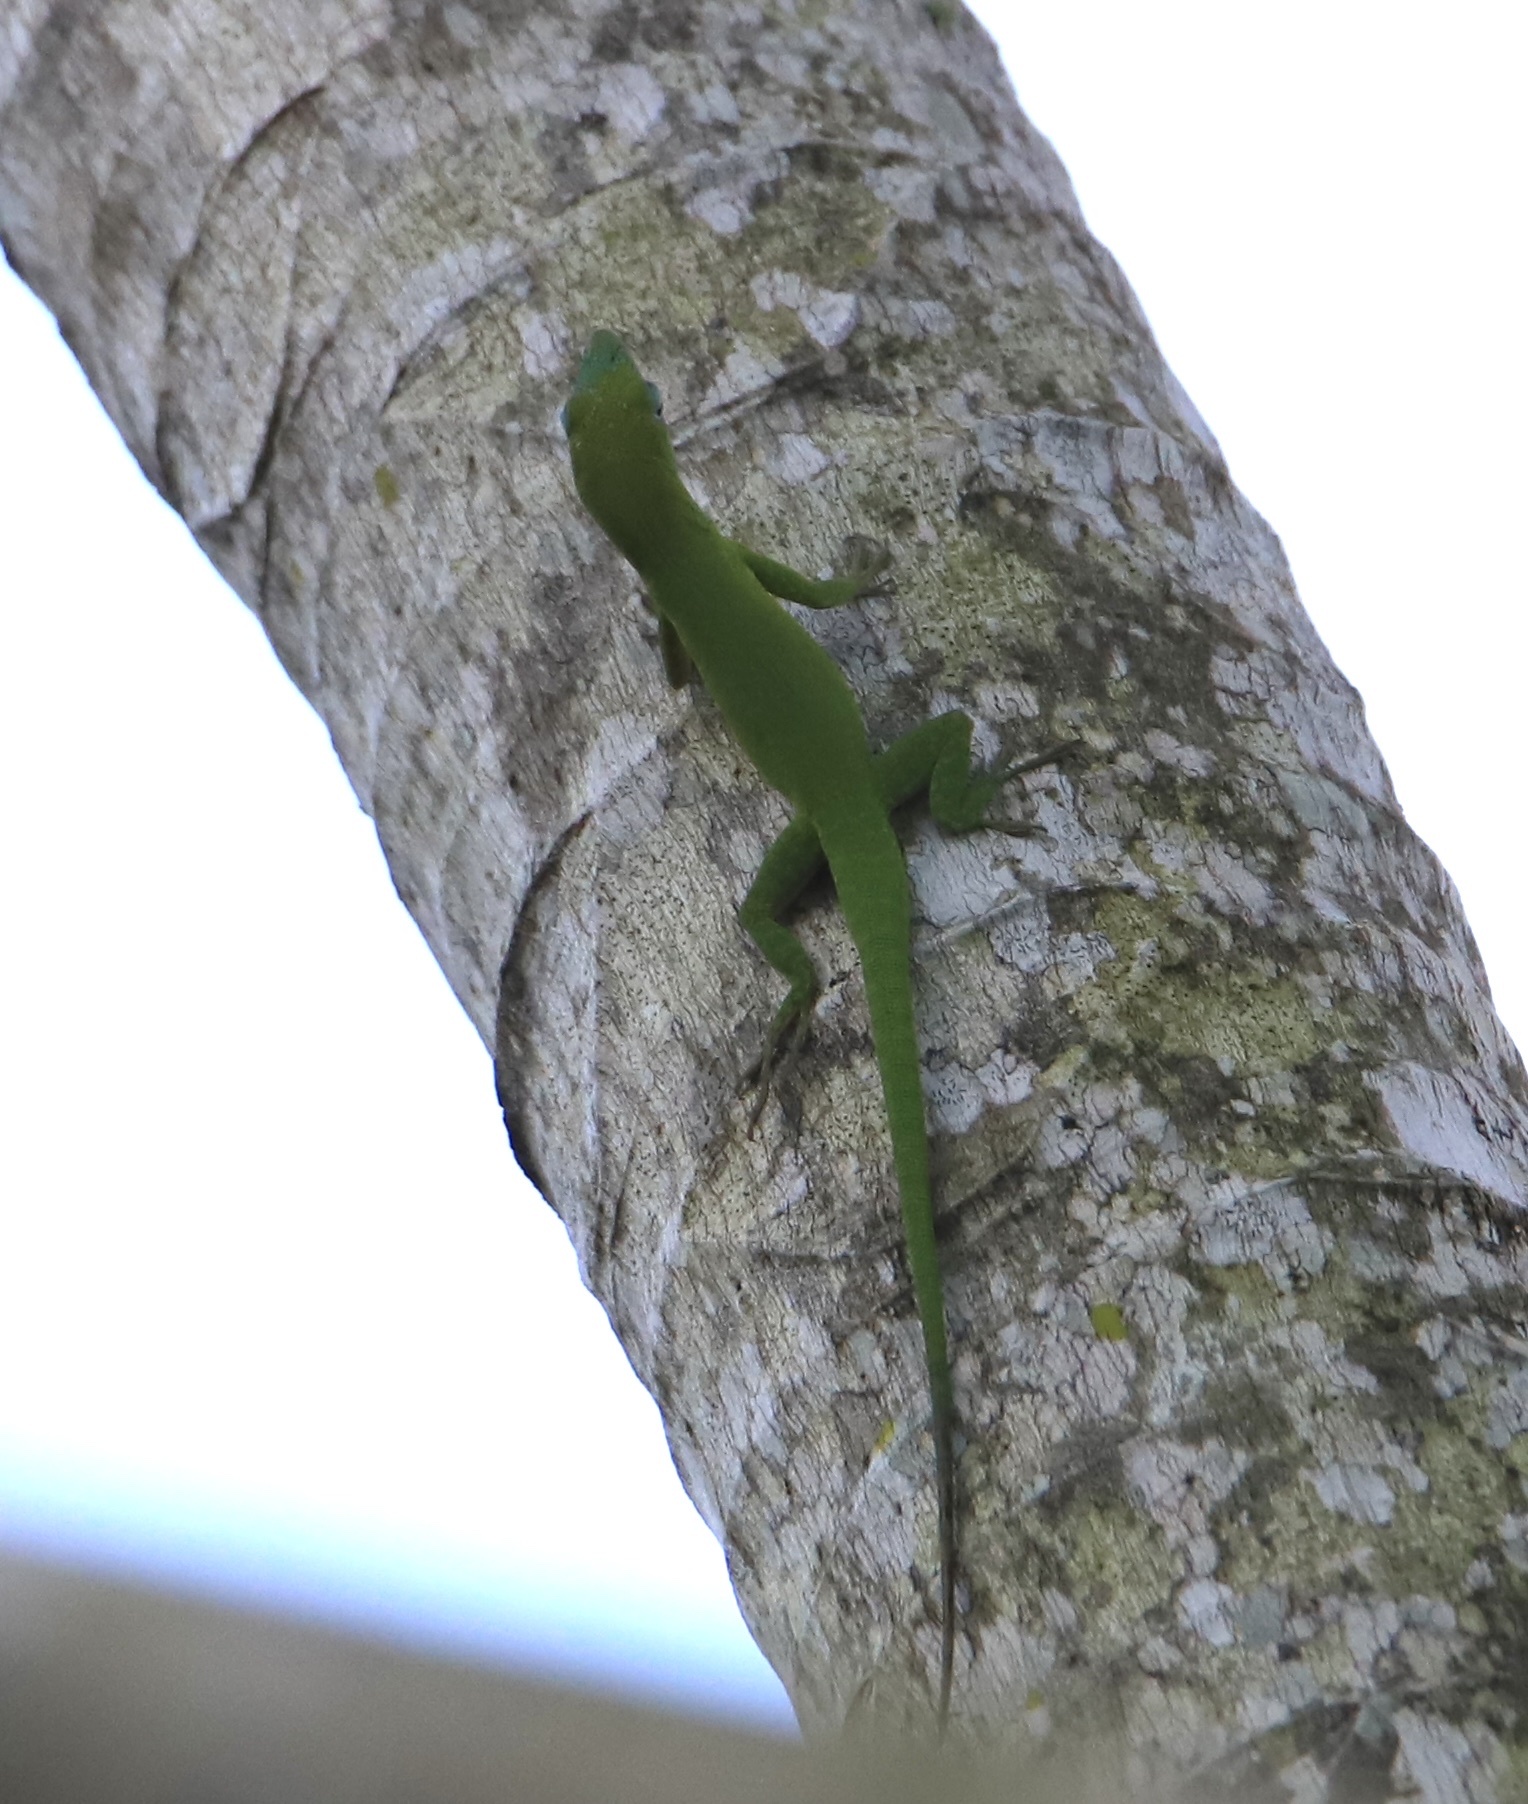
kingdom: Animalia
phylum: Chordata
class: Squamata
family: Dactyloidae
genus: Anolis
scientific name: Anolis callainus
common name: Dominican green anole
